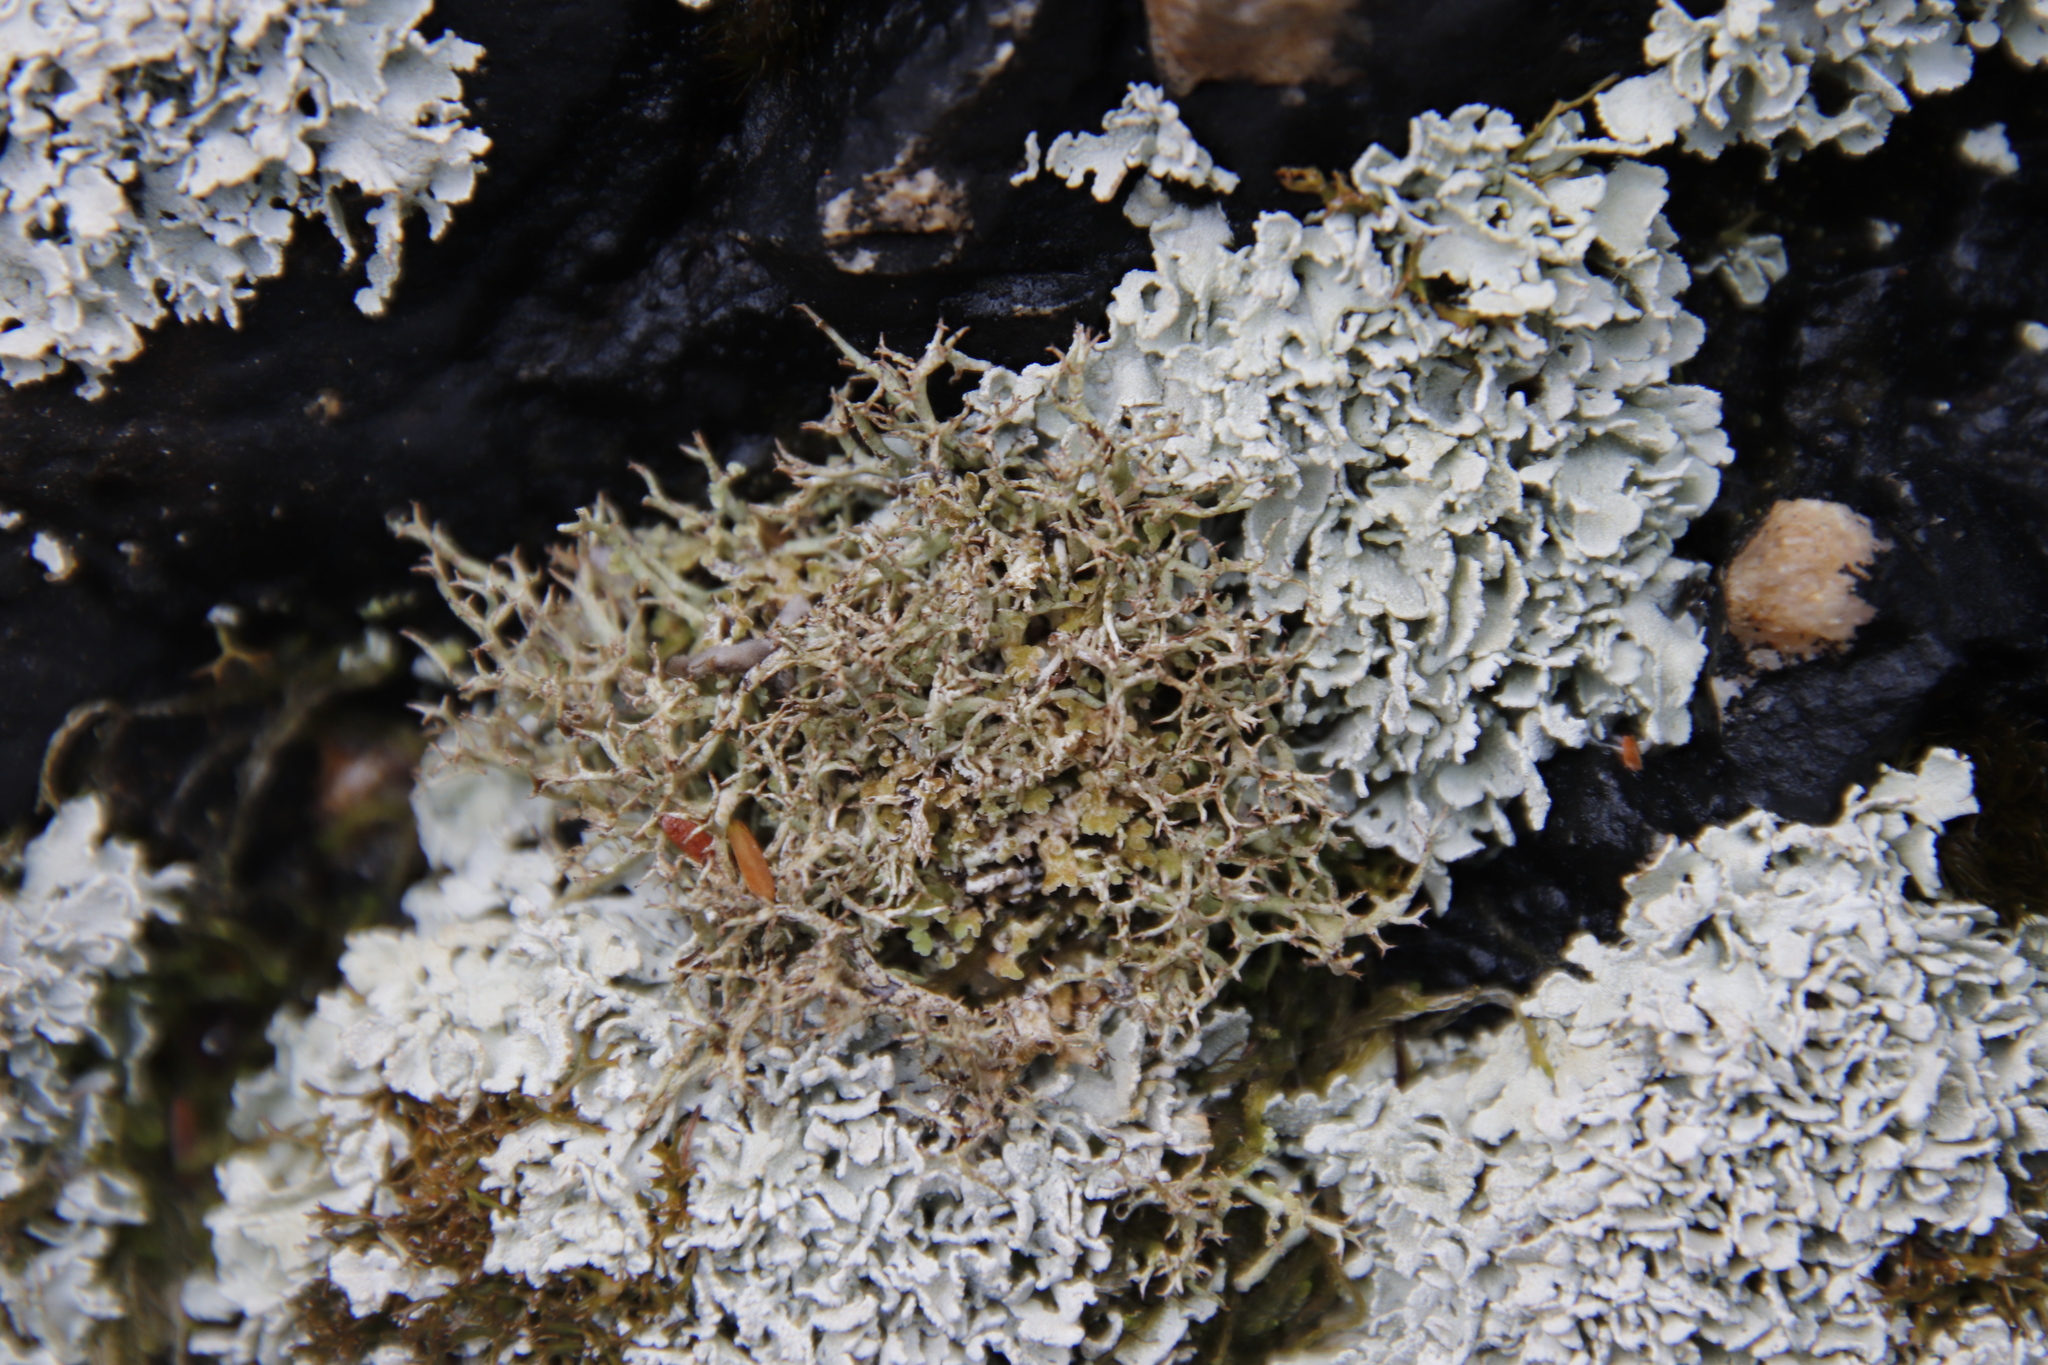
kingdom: Fungi
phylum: Ascomycota
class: Lecanoromycetes
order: Lecanorales
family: Cladoniaceae
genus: Cladonia
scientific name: Cladonia
